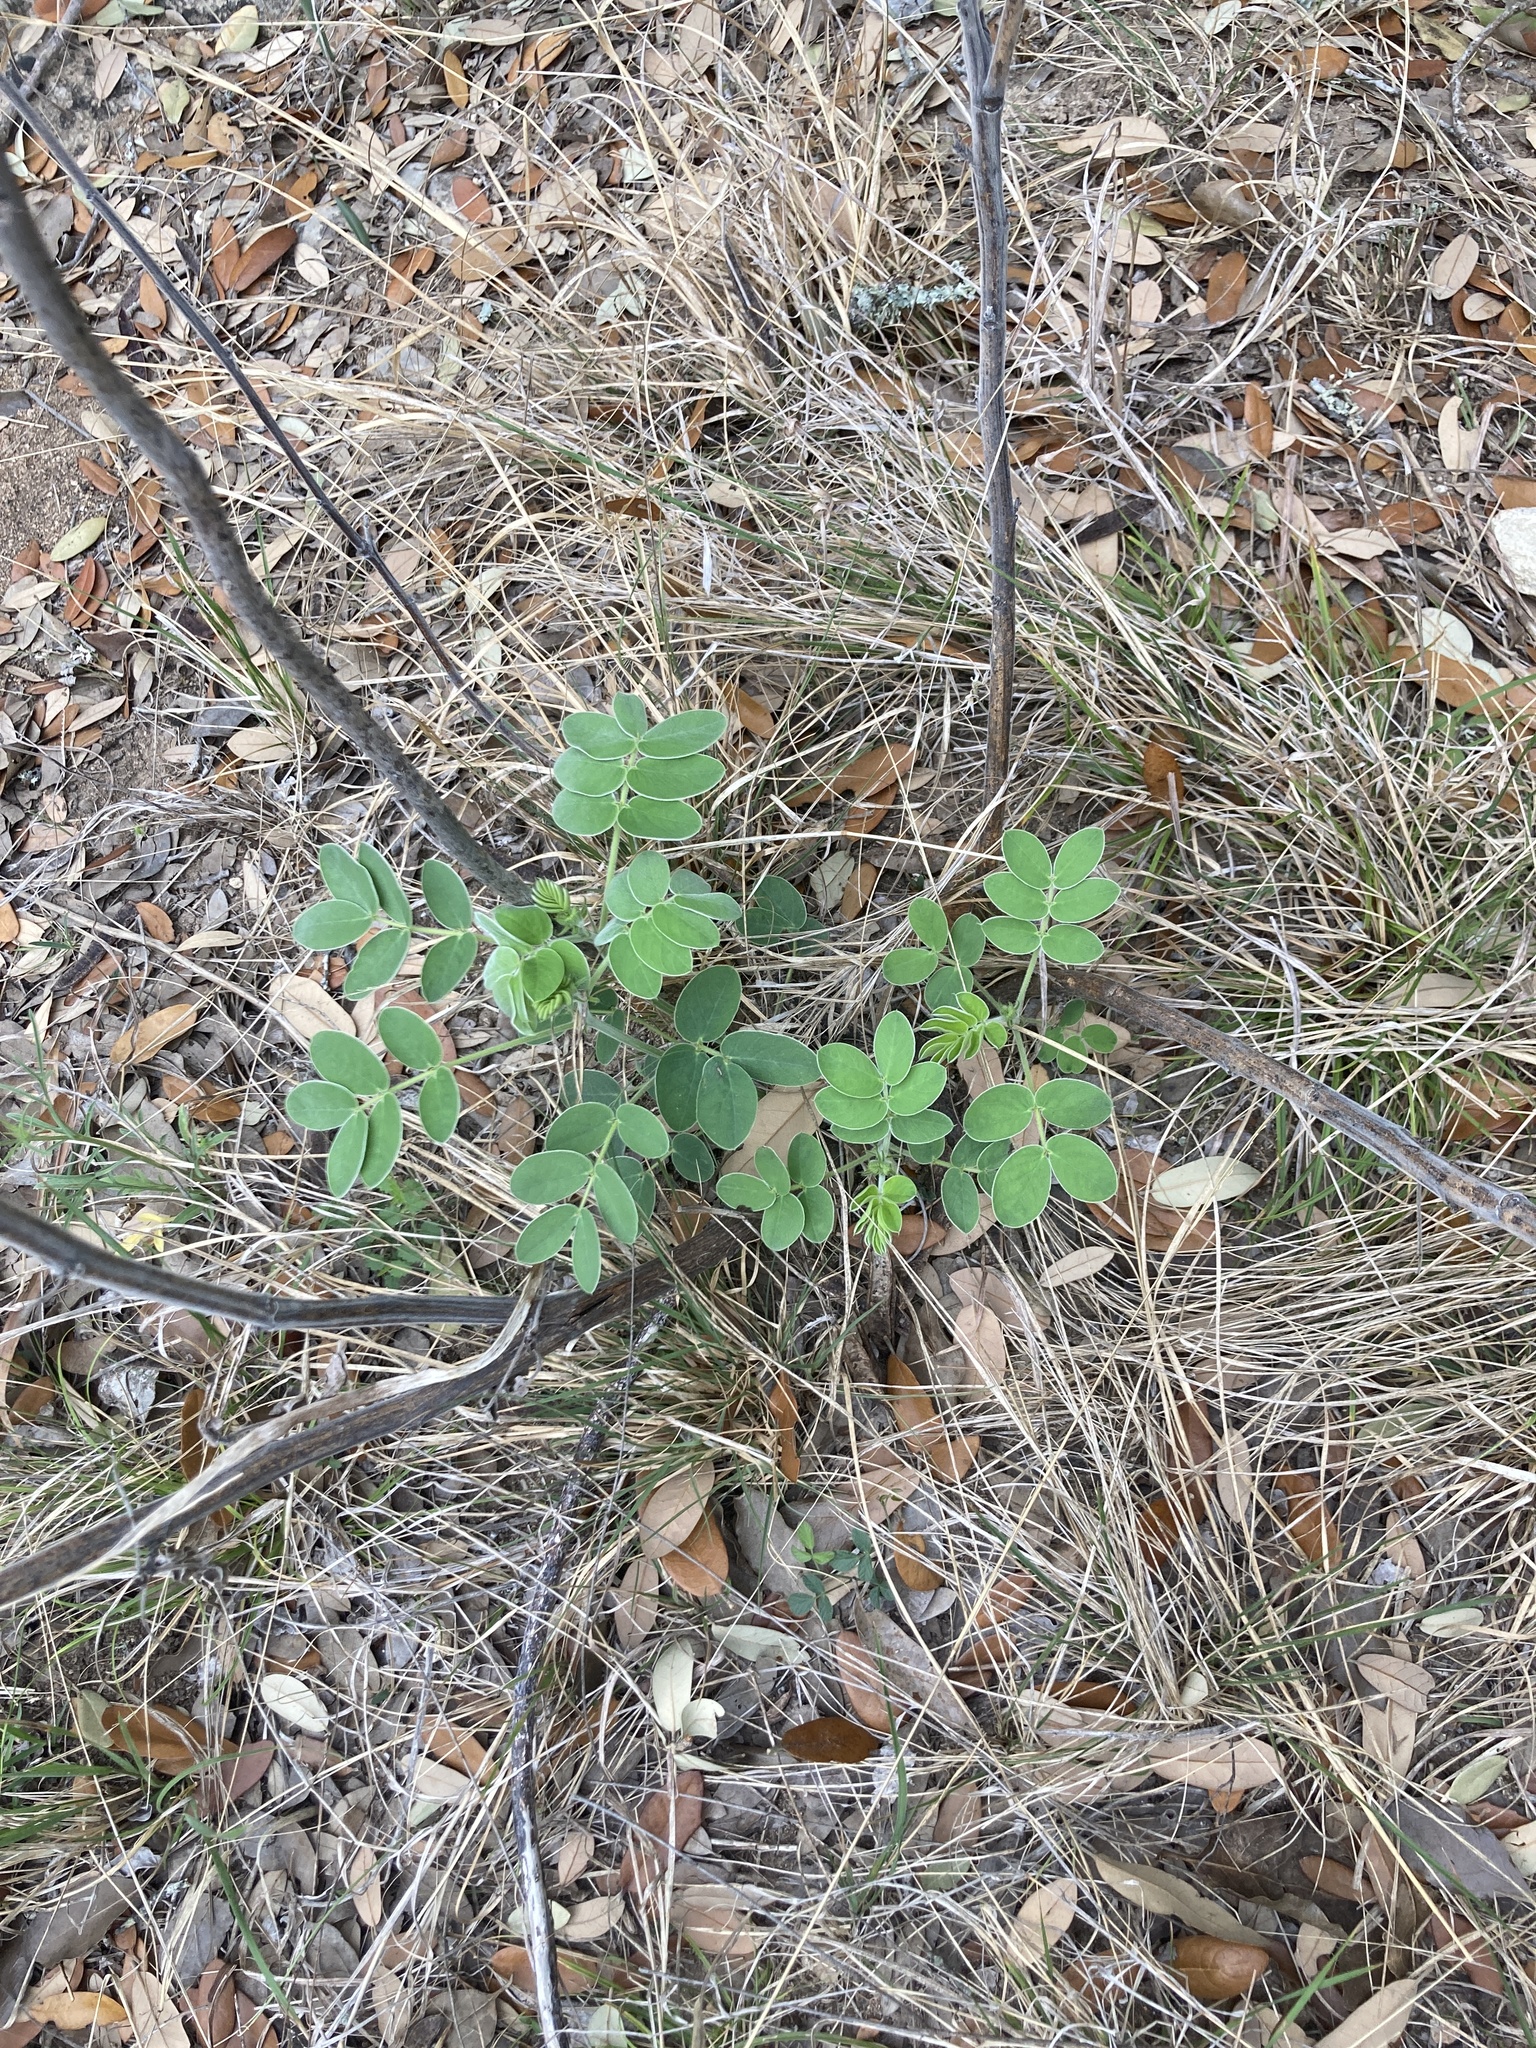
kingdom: Plantae
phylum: Tracheophyta
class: Magnoliopsida
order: Fabales
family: Fabaceae
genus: Senna
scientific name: Senna lindheimeriana
